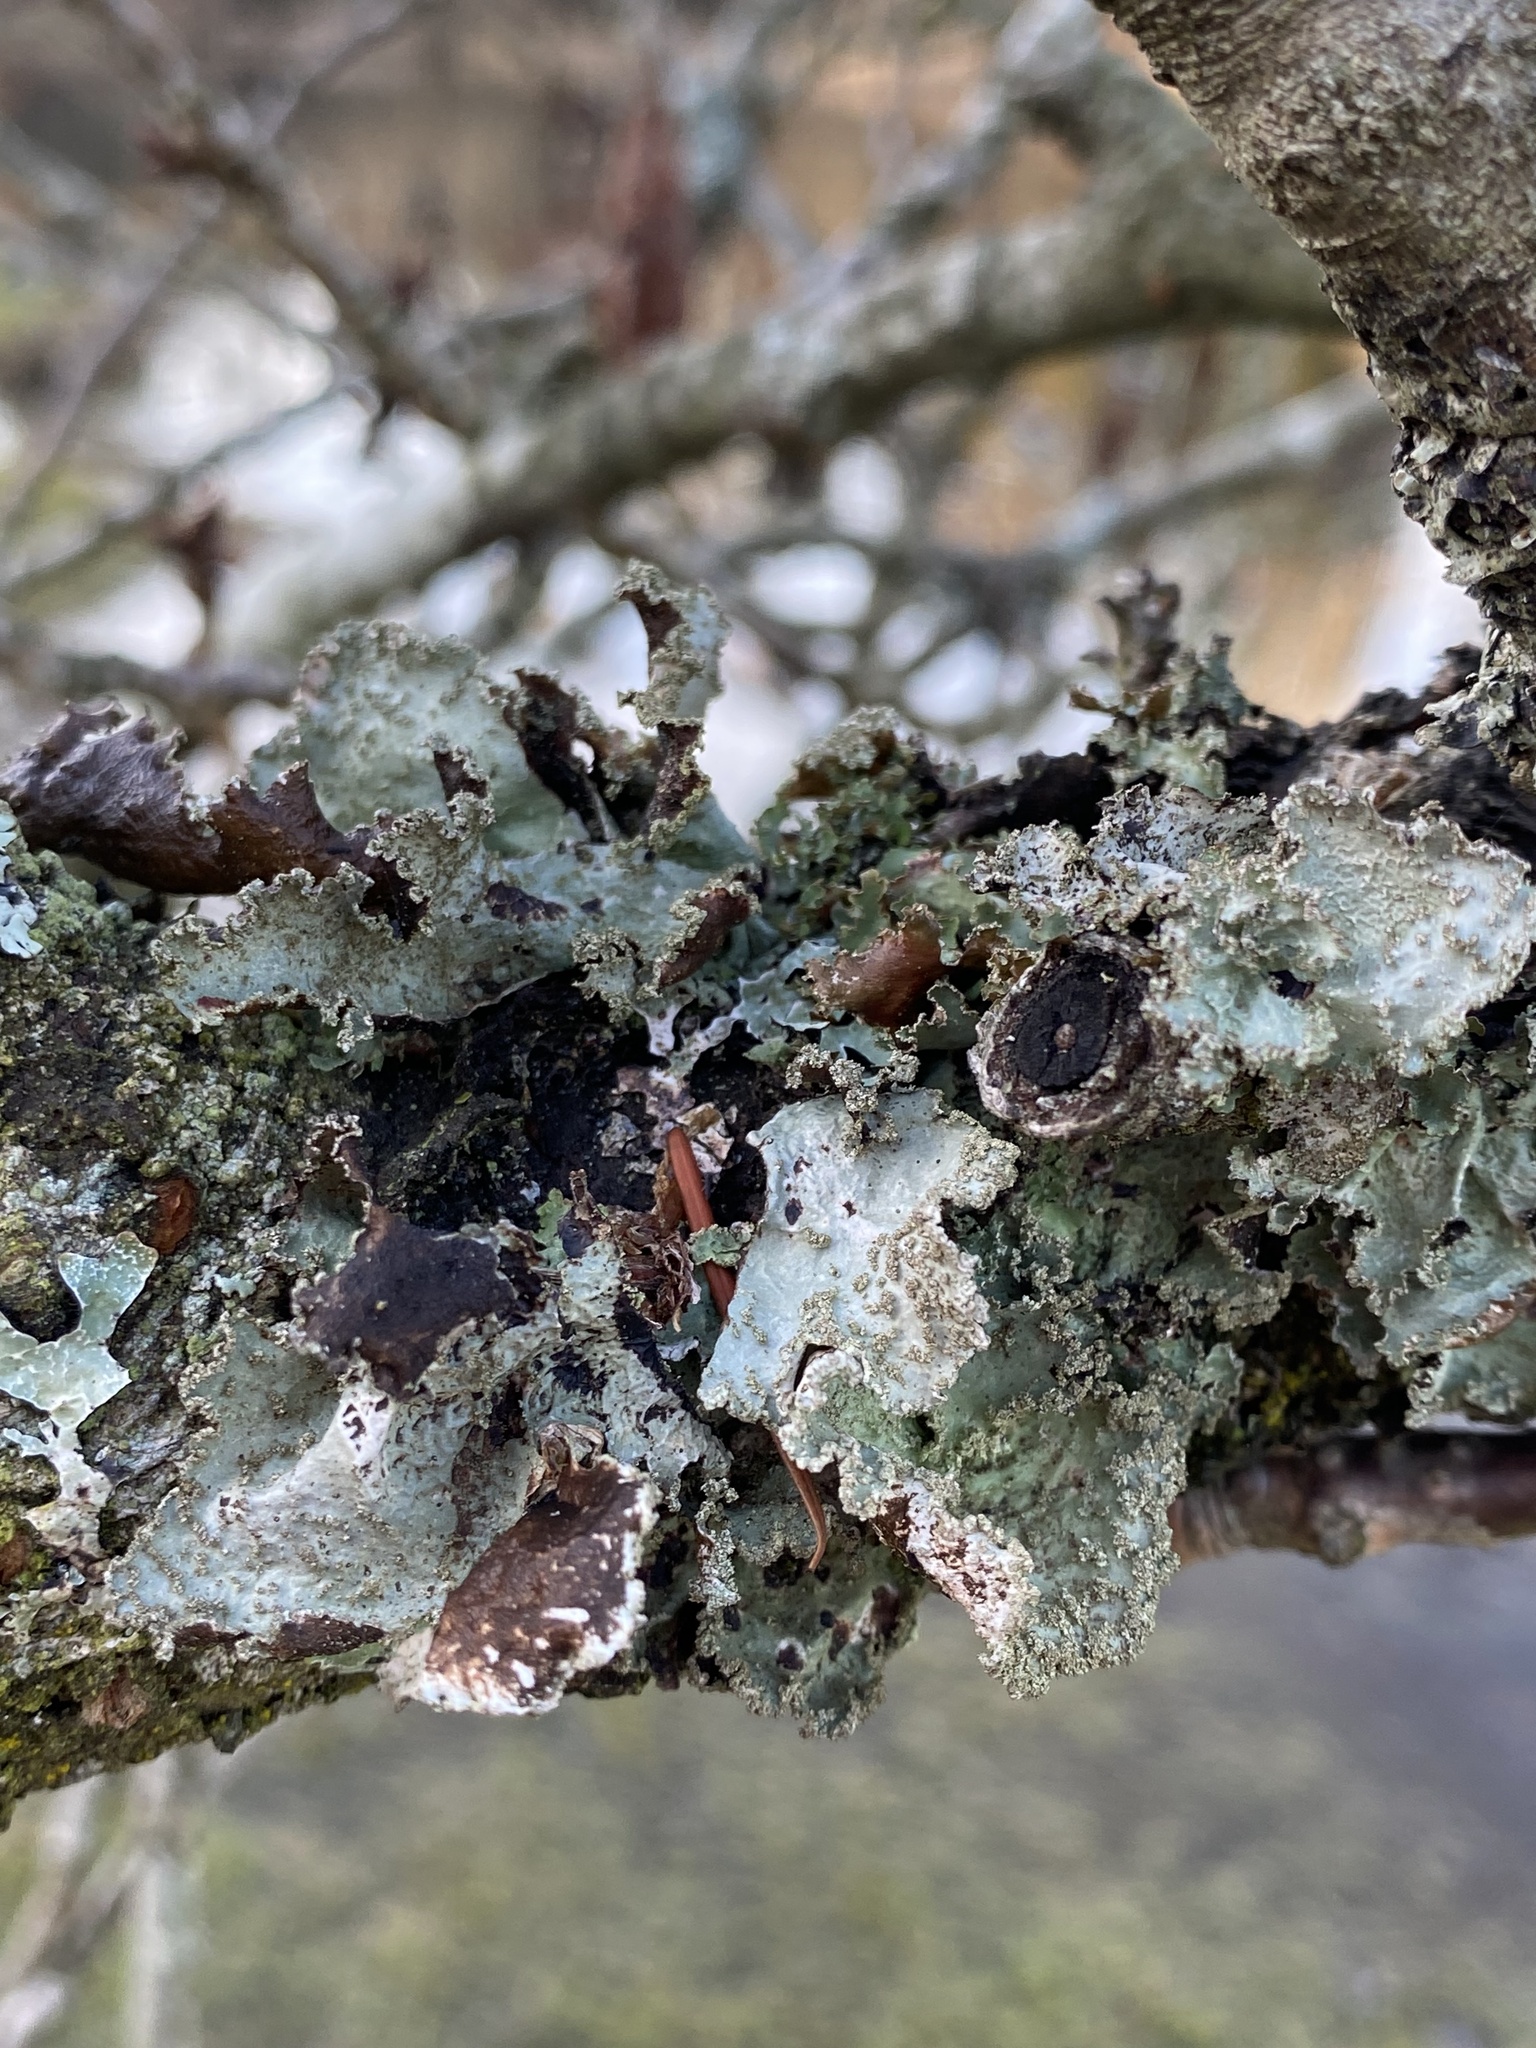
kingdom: Fungi
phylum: Ascomycota
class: Lecanoromycetes
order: Lecanorales
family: Parmeliaceae
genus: Platismatia
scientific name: Platismatia glauca
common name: Varied rag lichen
